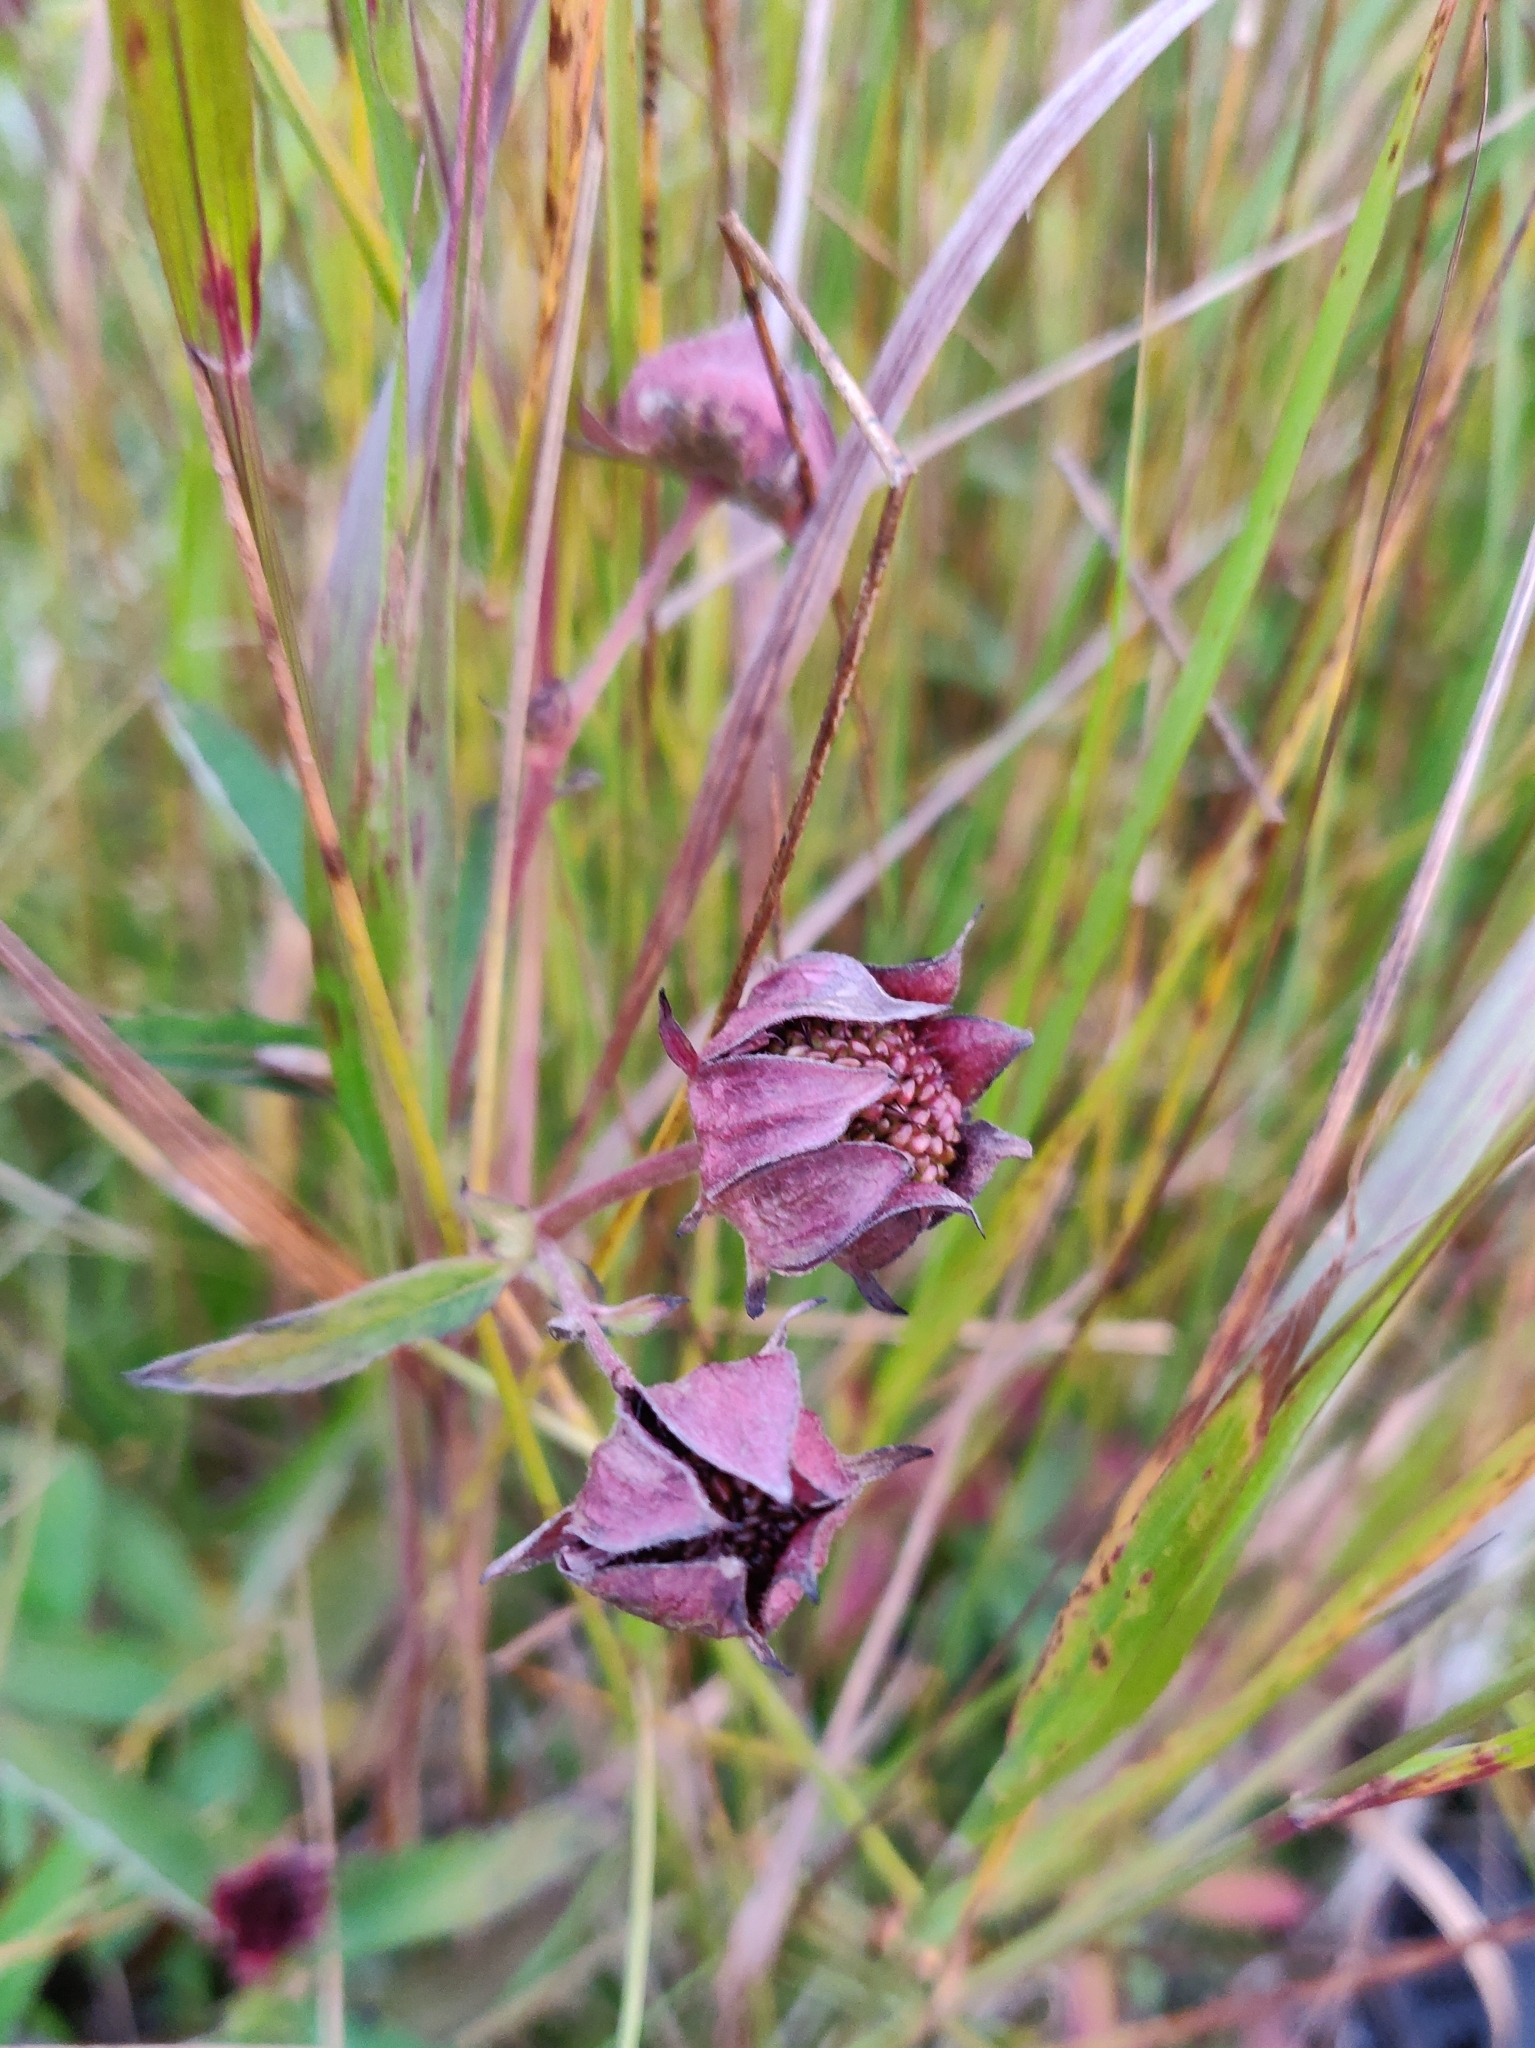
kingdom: Plantae
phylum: Tracheophyta
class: Magnoliopsida
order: Rosales
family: Rosaceae
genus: Comarum
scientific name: Comarum palustre
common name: Marsh cinquefoil
